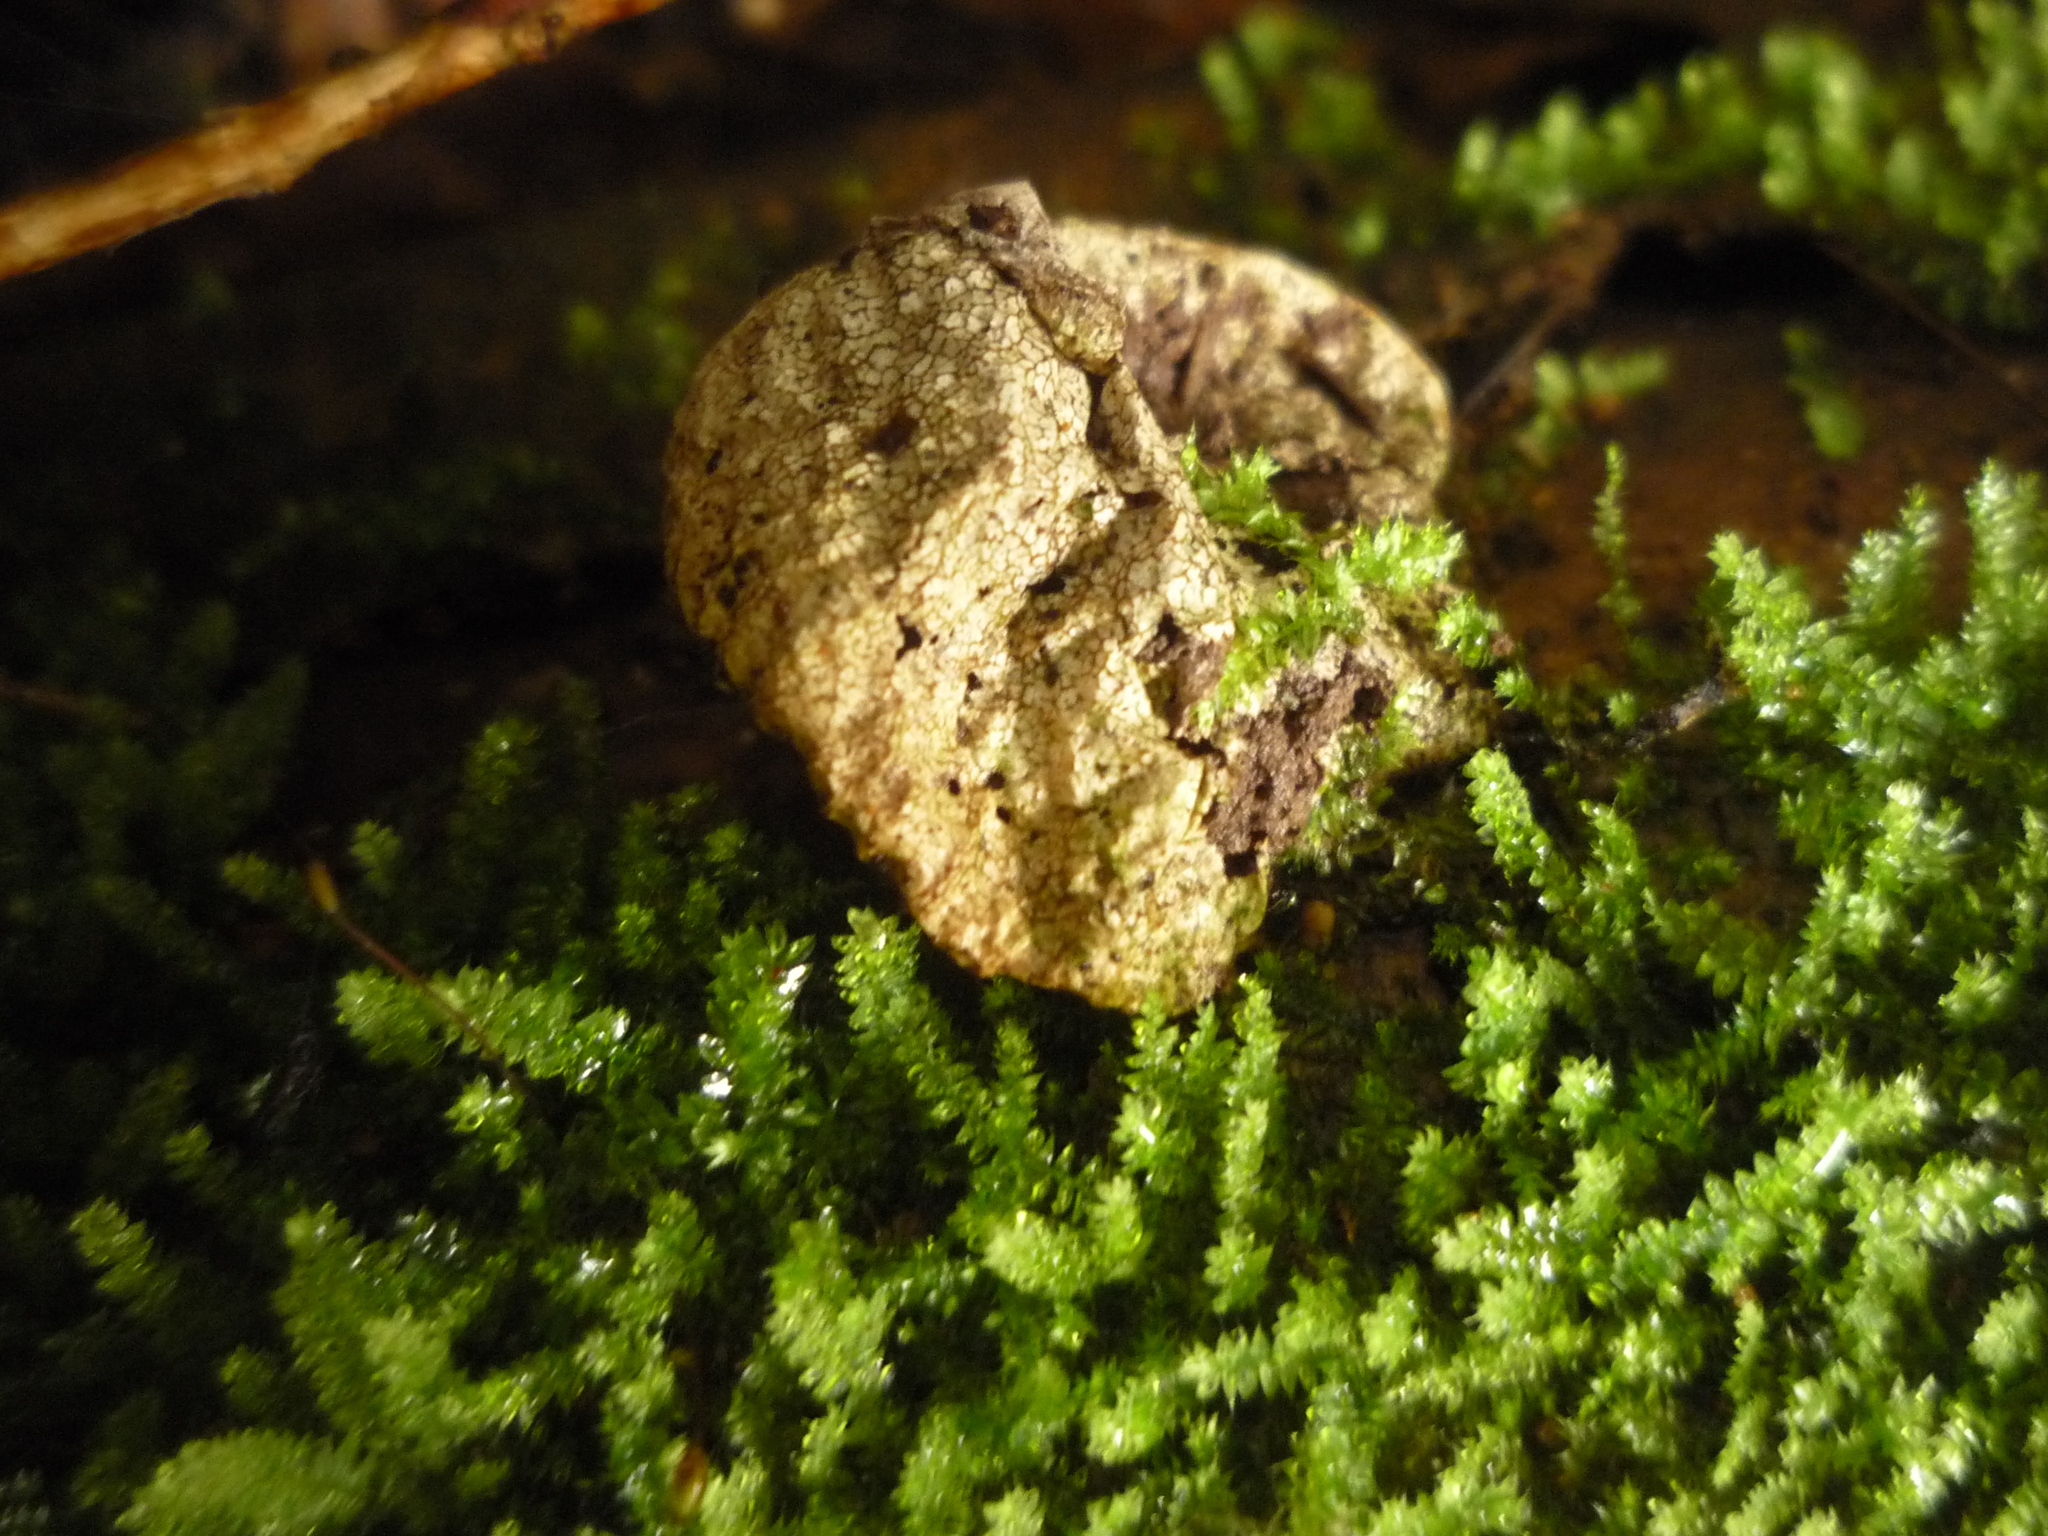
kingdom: Fungi
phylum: Basidiomycota
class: Agaricomycetes
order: Agaricales
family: Lycoperdaceae
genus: Lycoperdon
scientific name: Lycoperdon compactum
